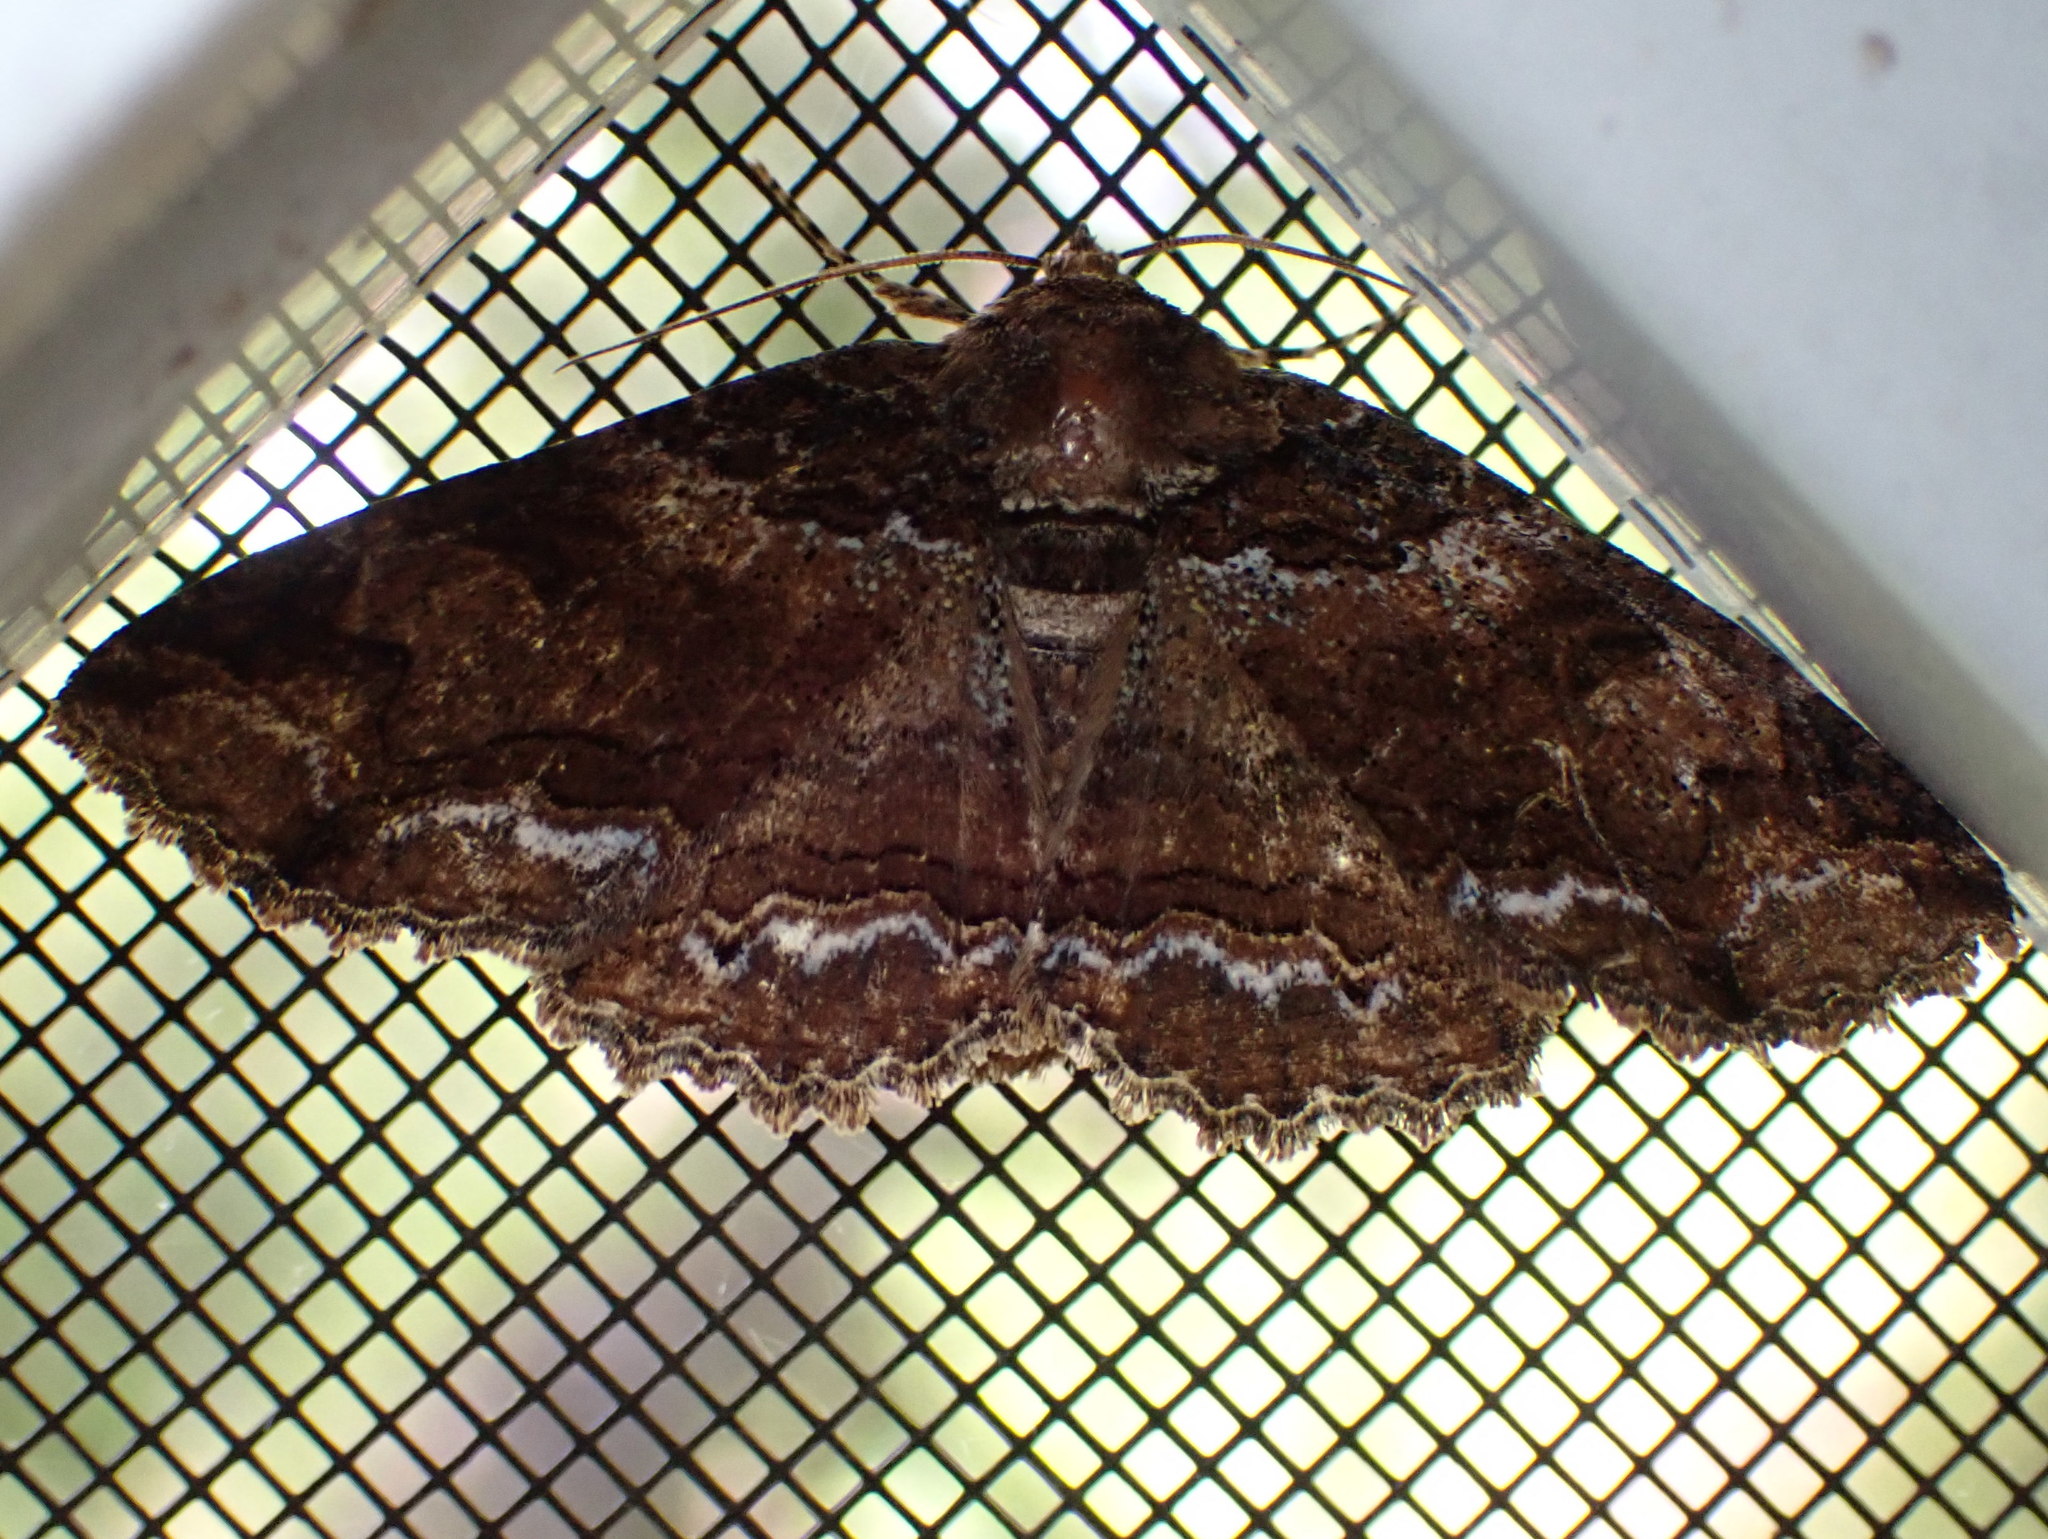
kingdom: Animalia
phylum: Arthropoda
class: Insecta
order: Lepidoptera
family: Erebidae
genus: Zale
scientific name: Zale minerea
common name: Colorful zale moth
